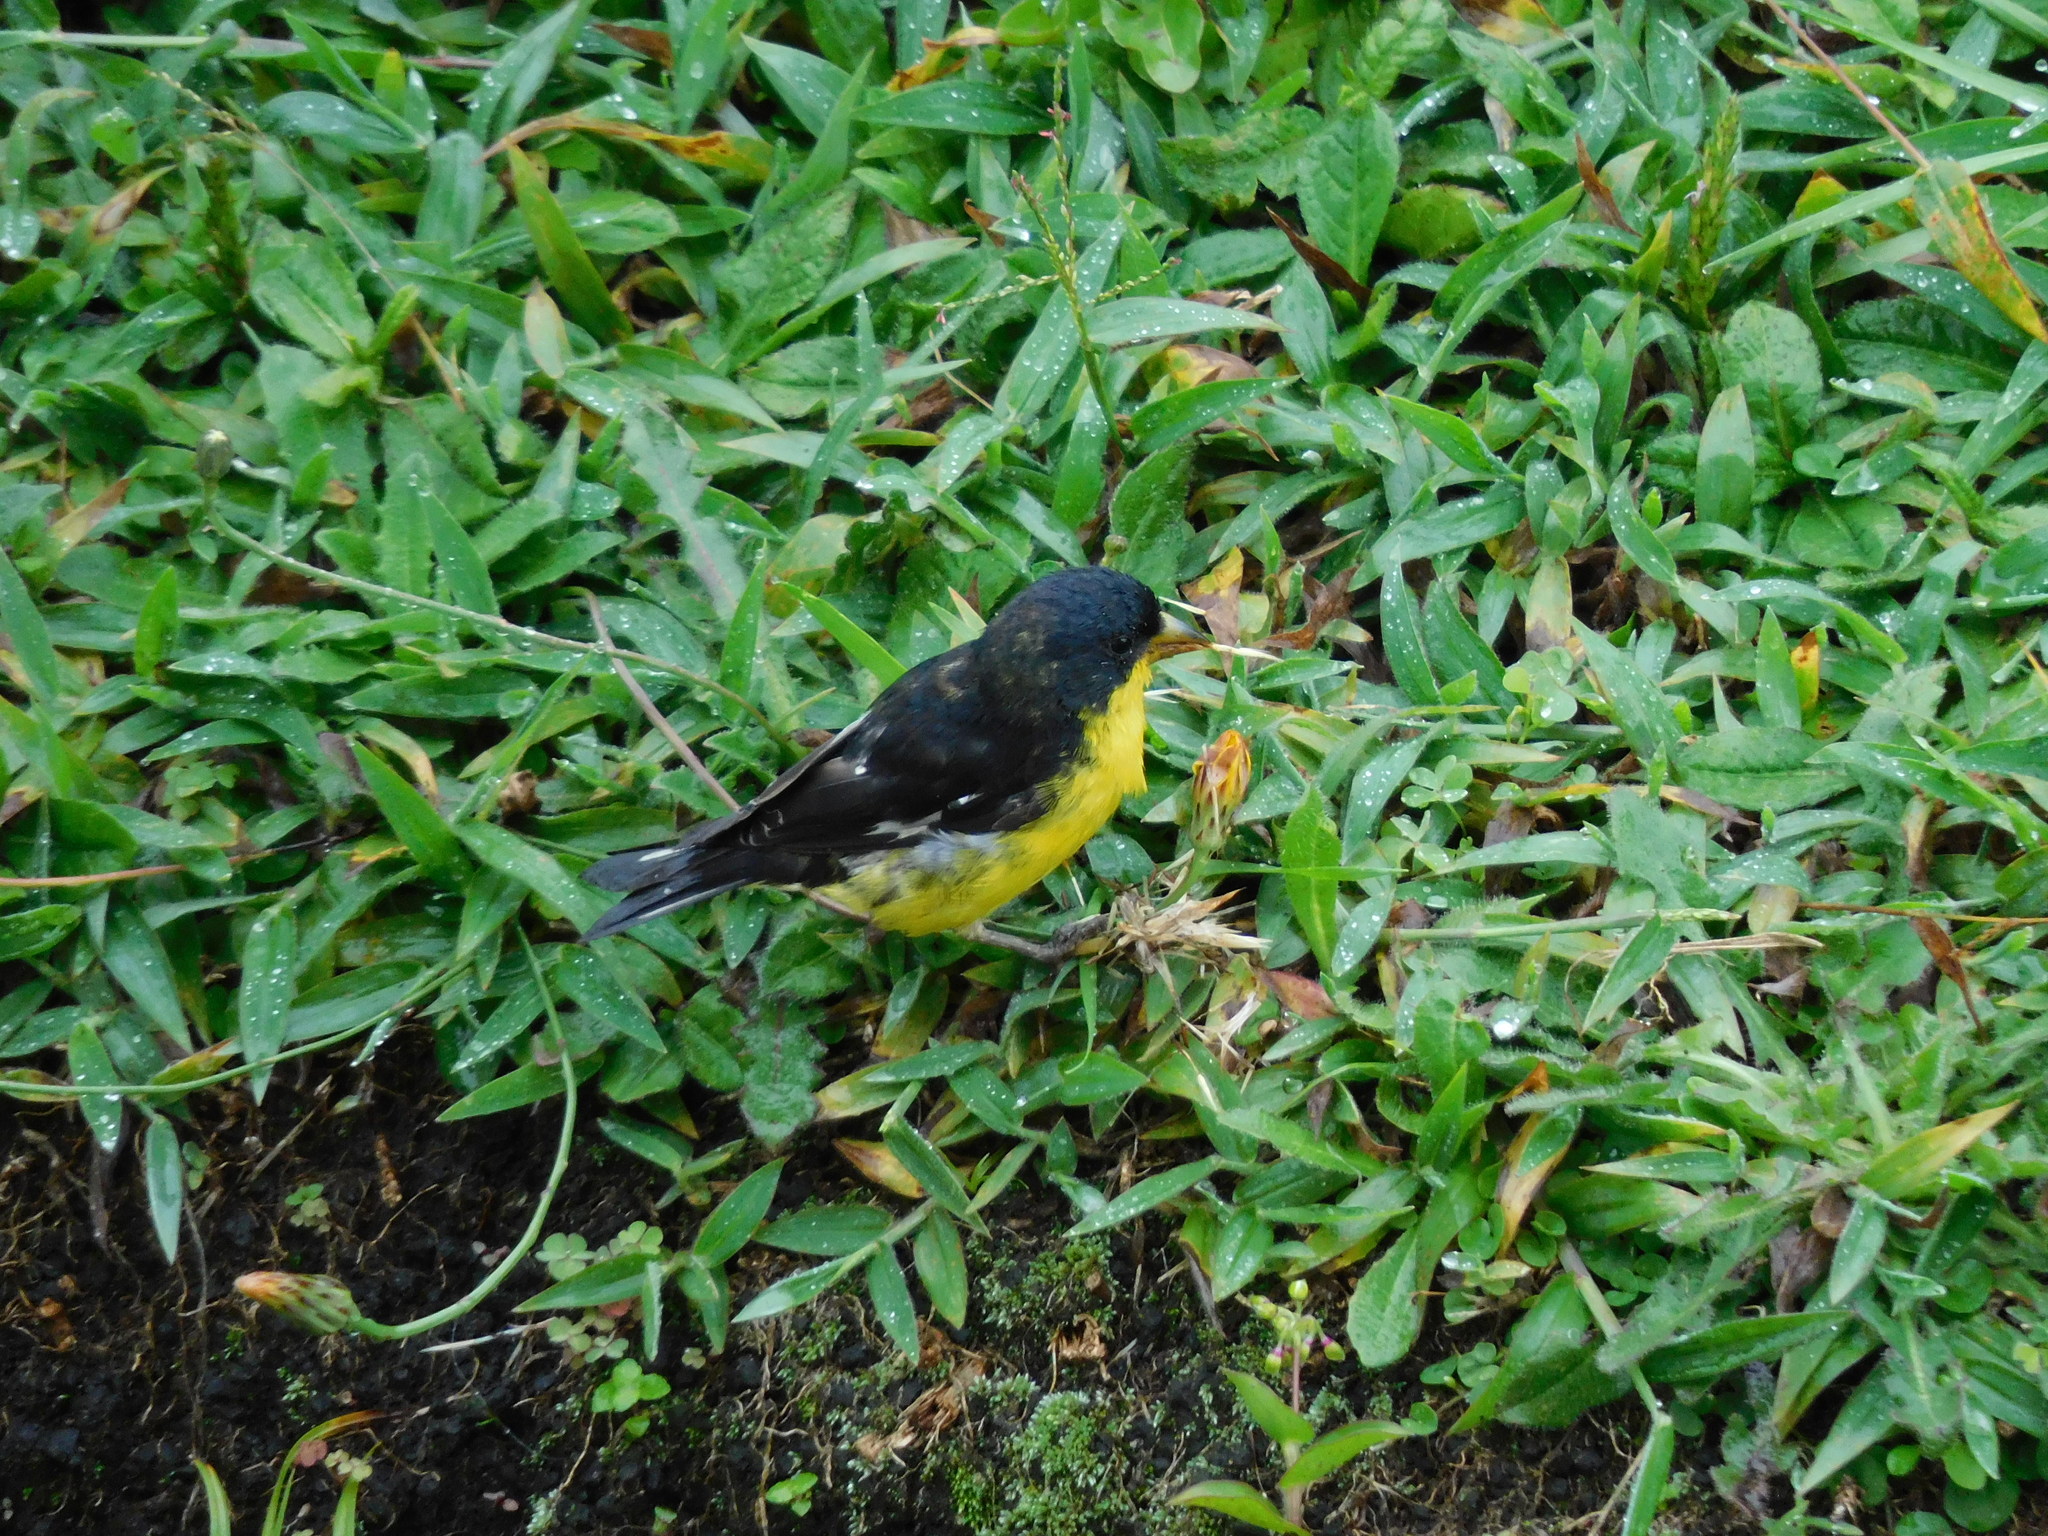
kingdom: Animalia
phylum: Chordata
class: Aves
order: Passeriformes
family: Fringillidae
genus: Spinus
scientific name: Spinus psaltria
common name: Lesser goldfinch
